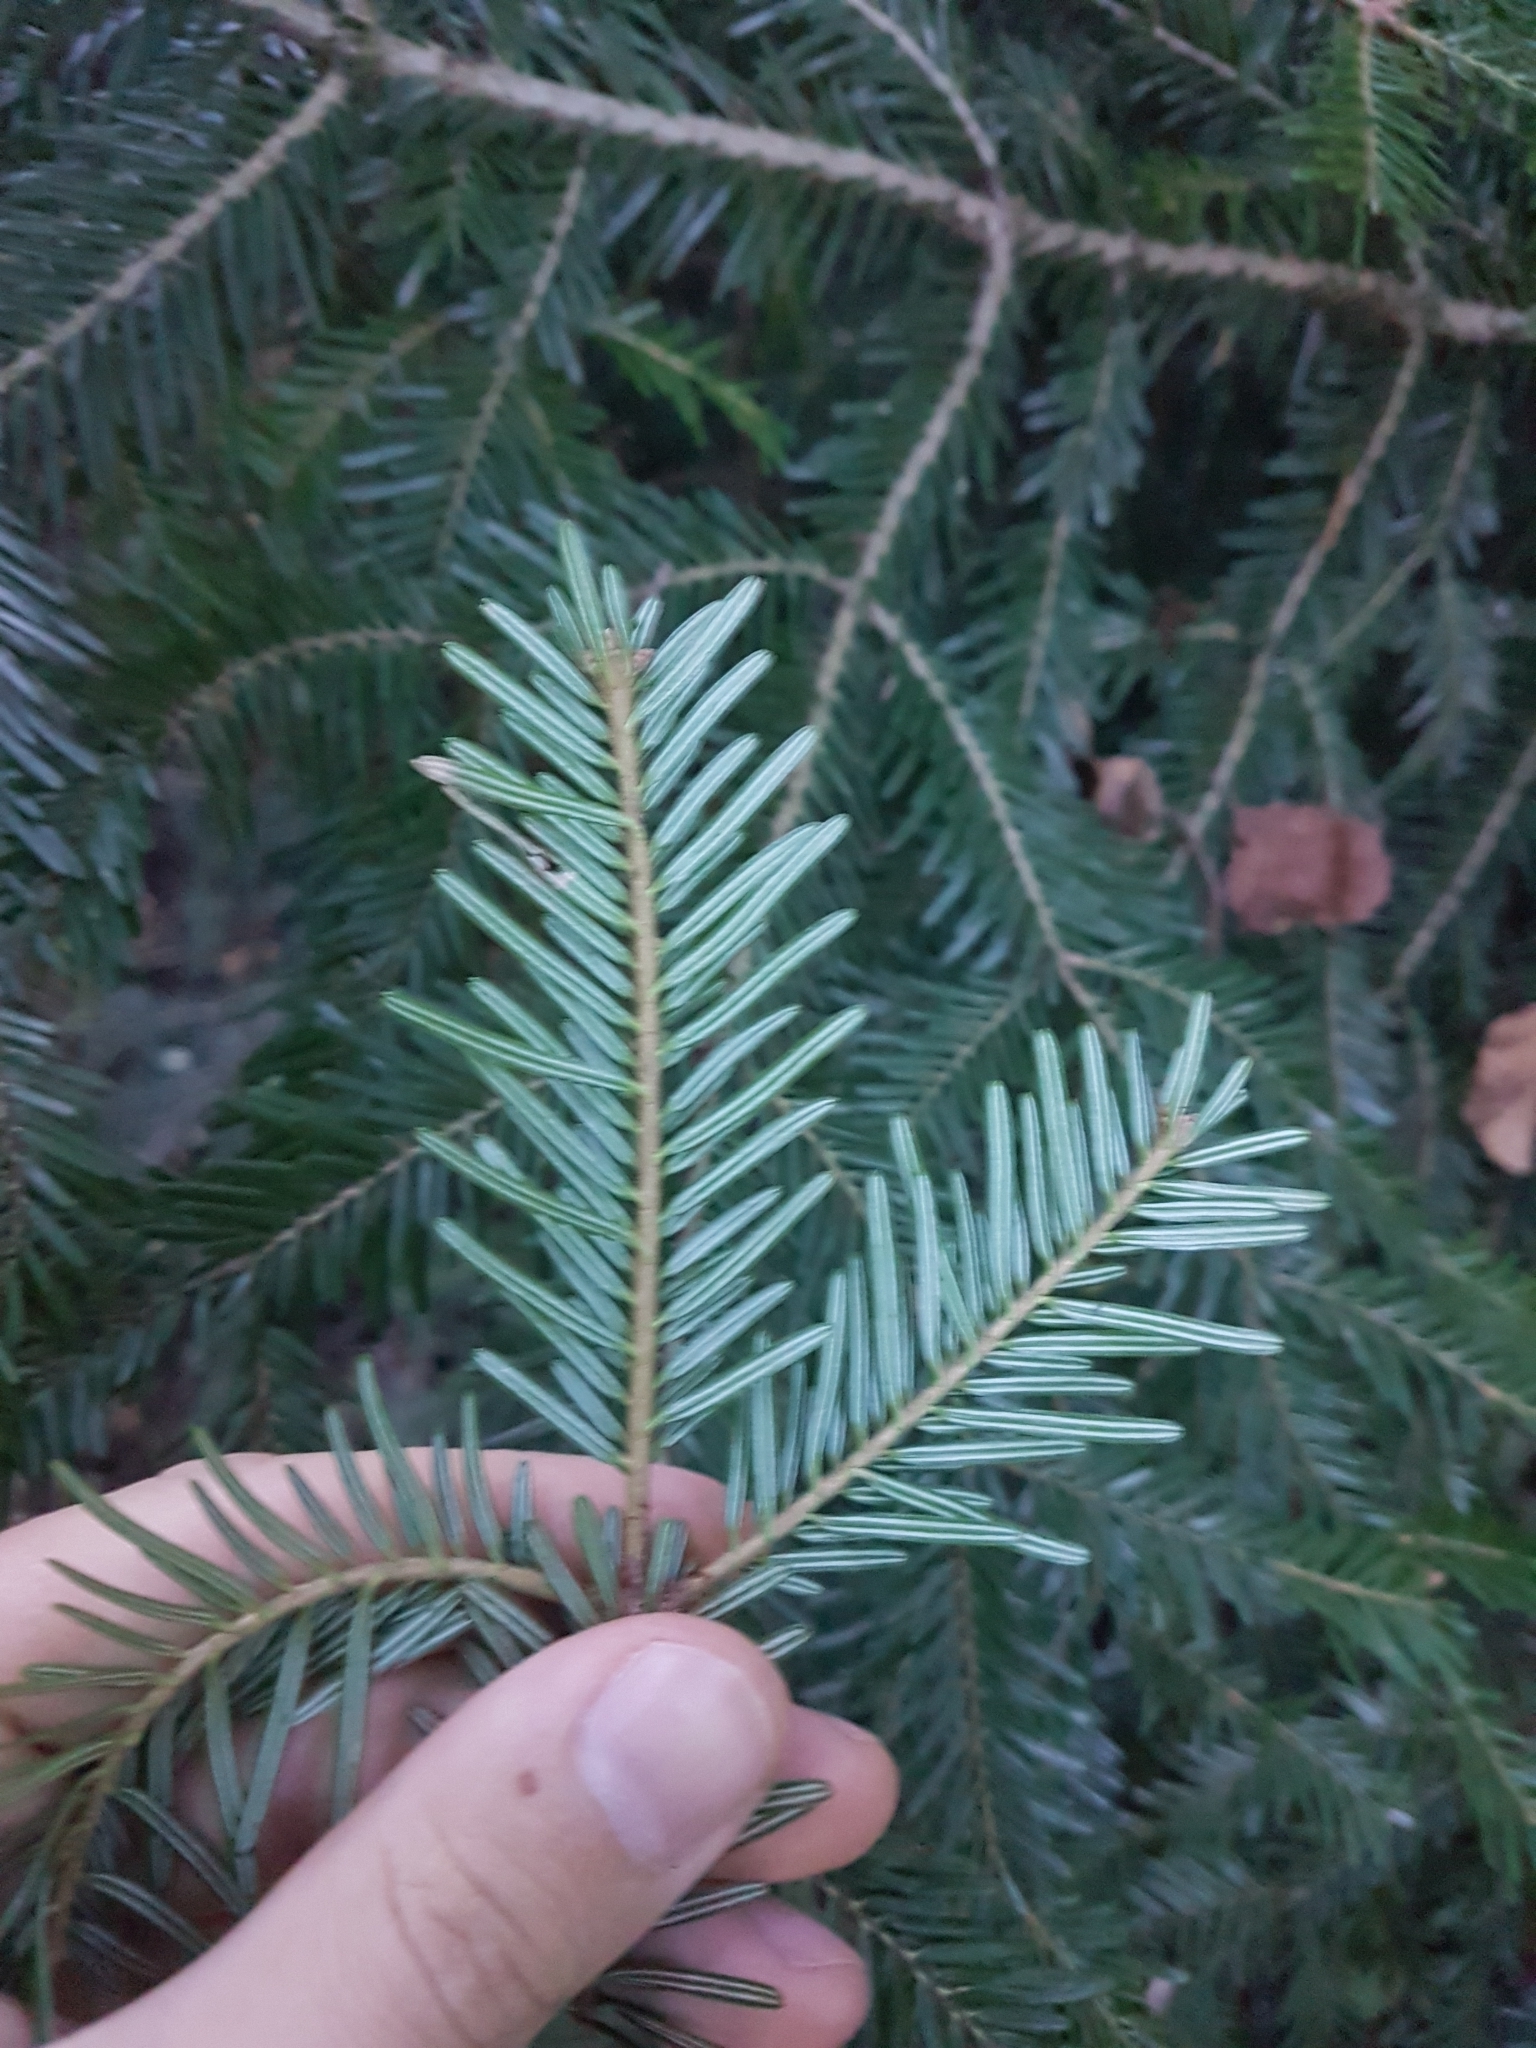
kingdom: Plantae
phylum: Tracheophyta
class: Pinopsida
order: Pinales
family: Pinaceae
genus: Abies
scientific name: Abies alba
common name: Silver fir
